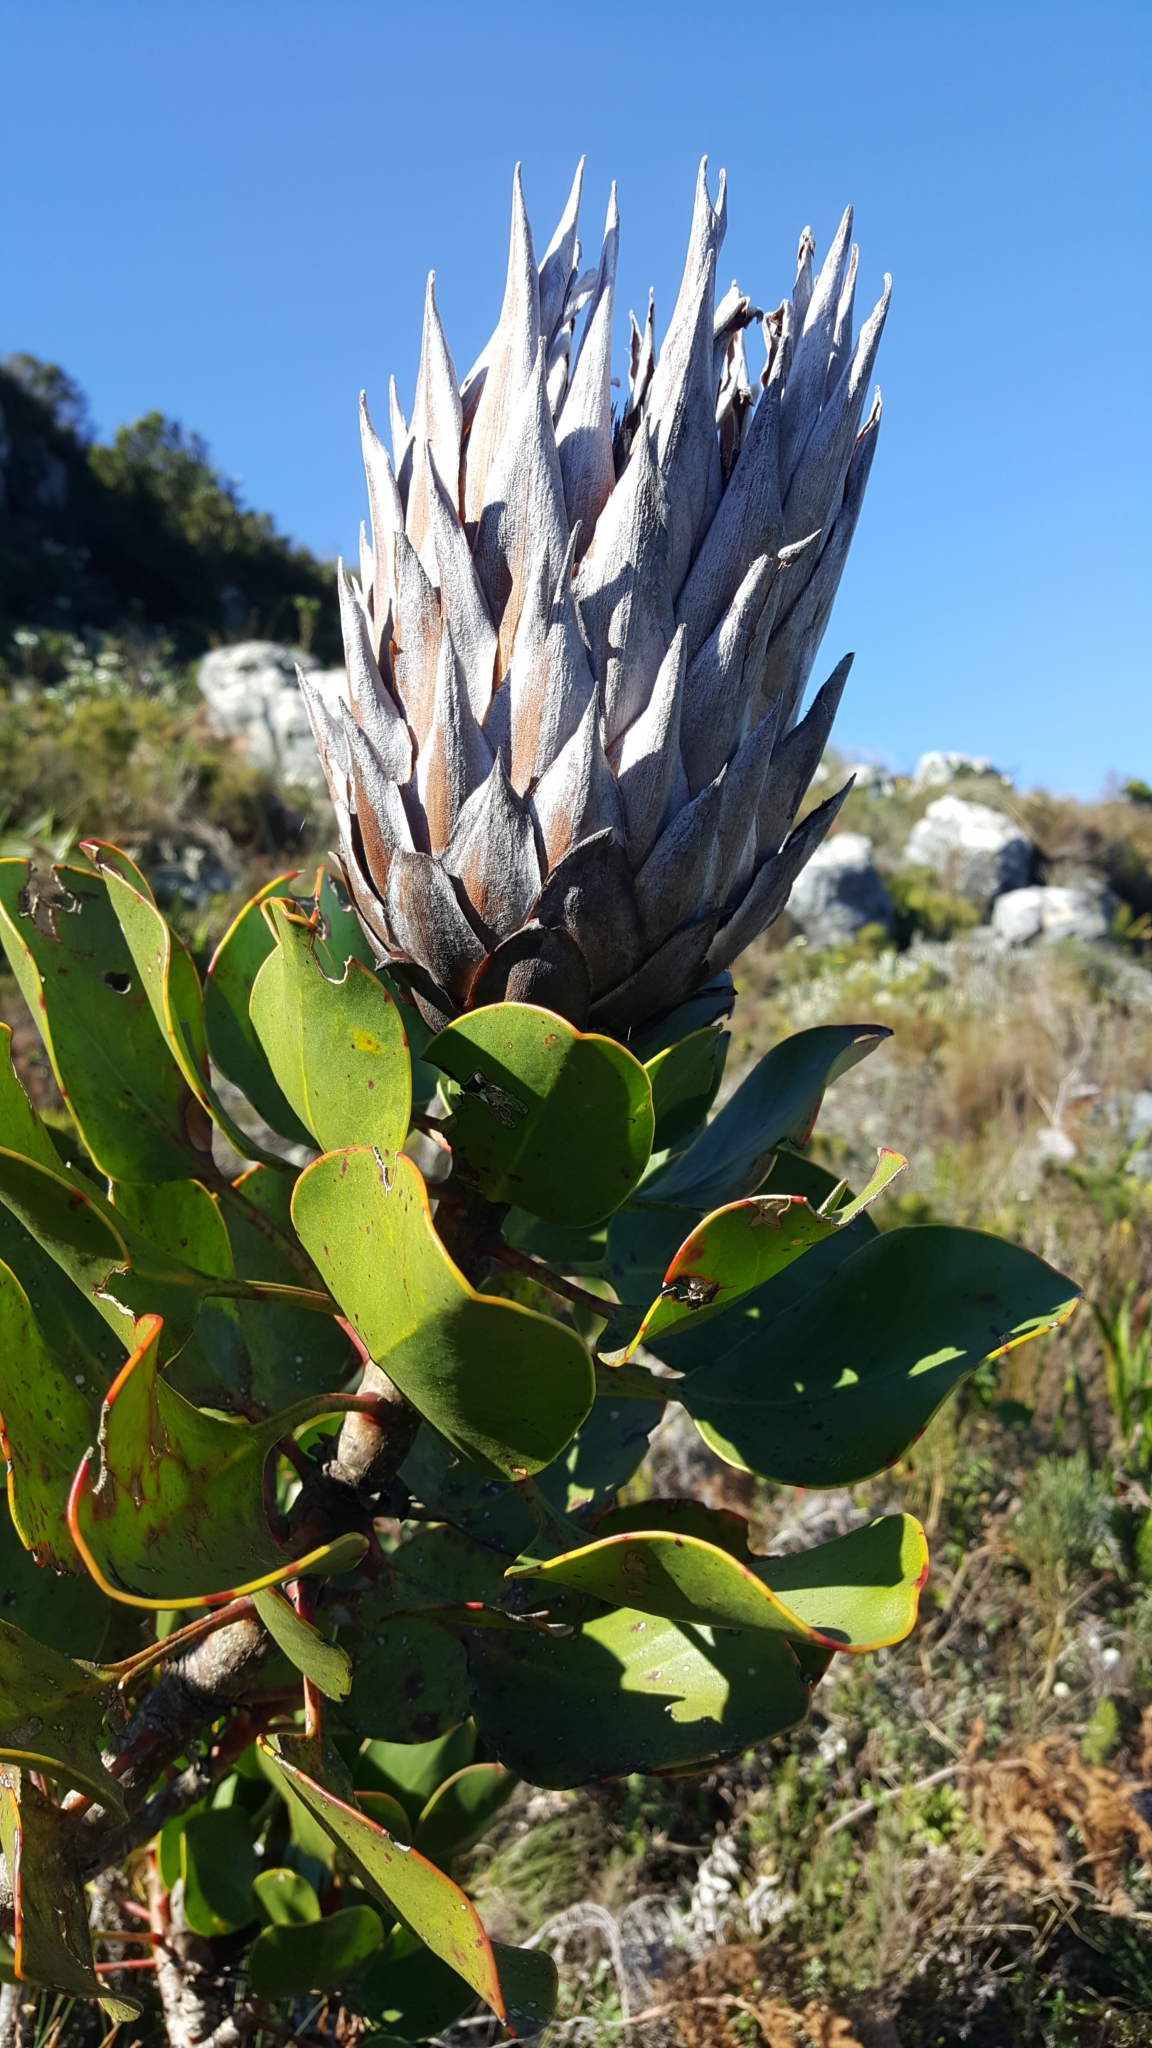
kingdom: Plantae
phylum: Tracheophyta
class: Magnoliopsida
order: Proteales
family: Proteaceae
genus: Protea
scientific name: Protea cynaroides
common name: King protea
